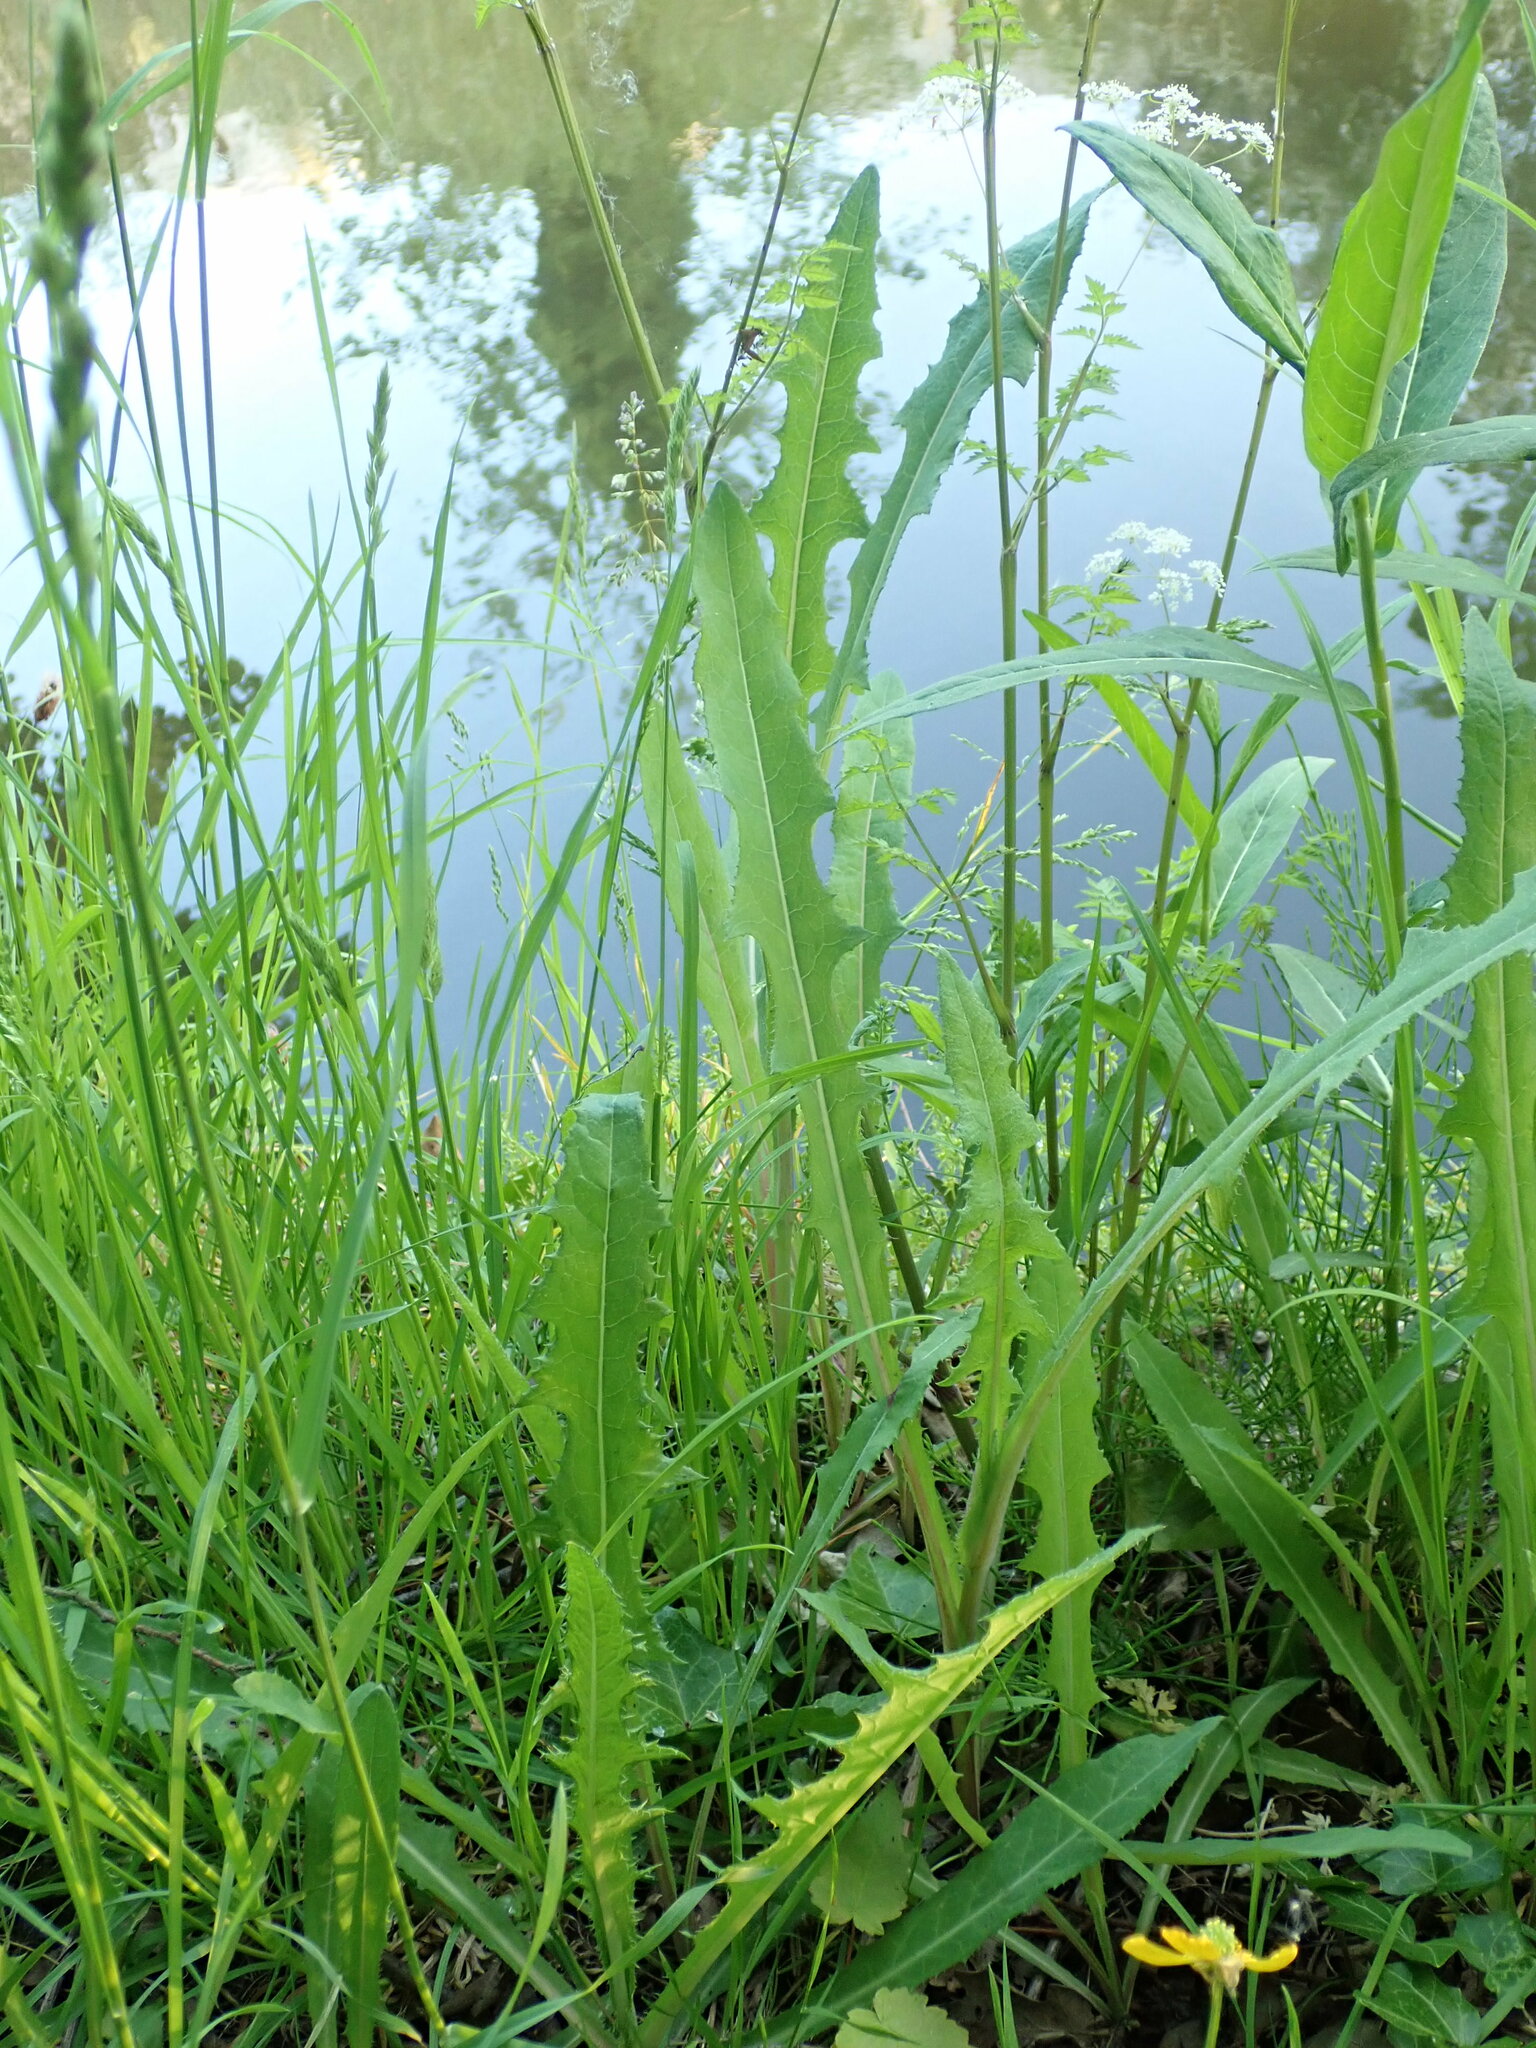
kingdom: Plantae
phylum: Tracheophyta
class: Magnoliopsida
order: Asterales
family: Asteraceae
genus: Sonchus
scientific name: Sonchus arvensis
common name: Perennial sow-thistle
